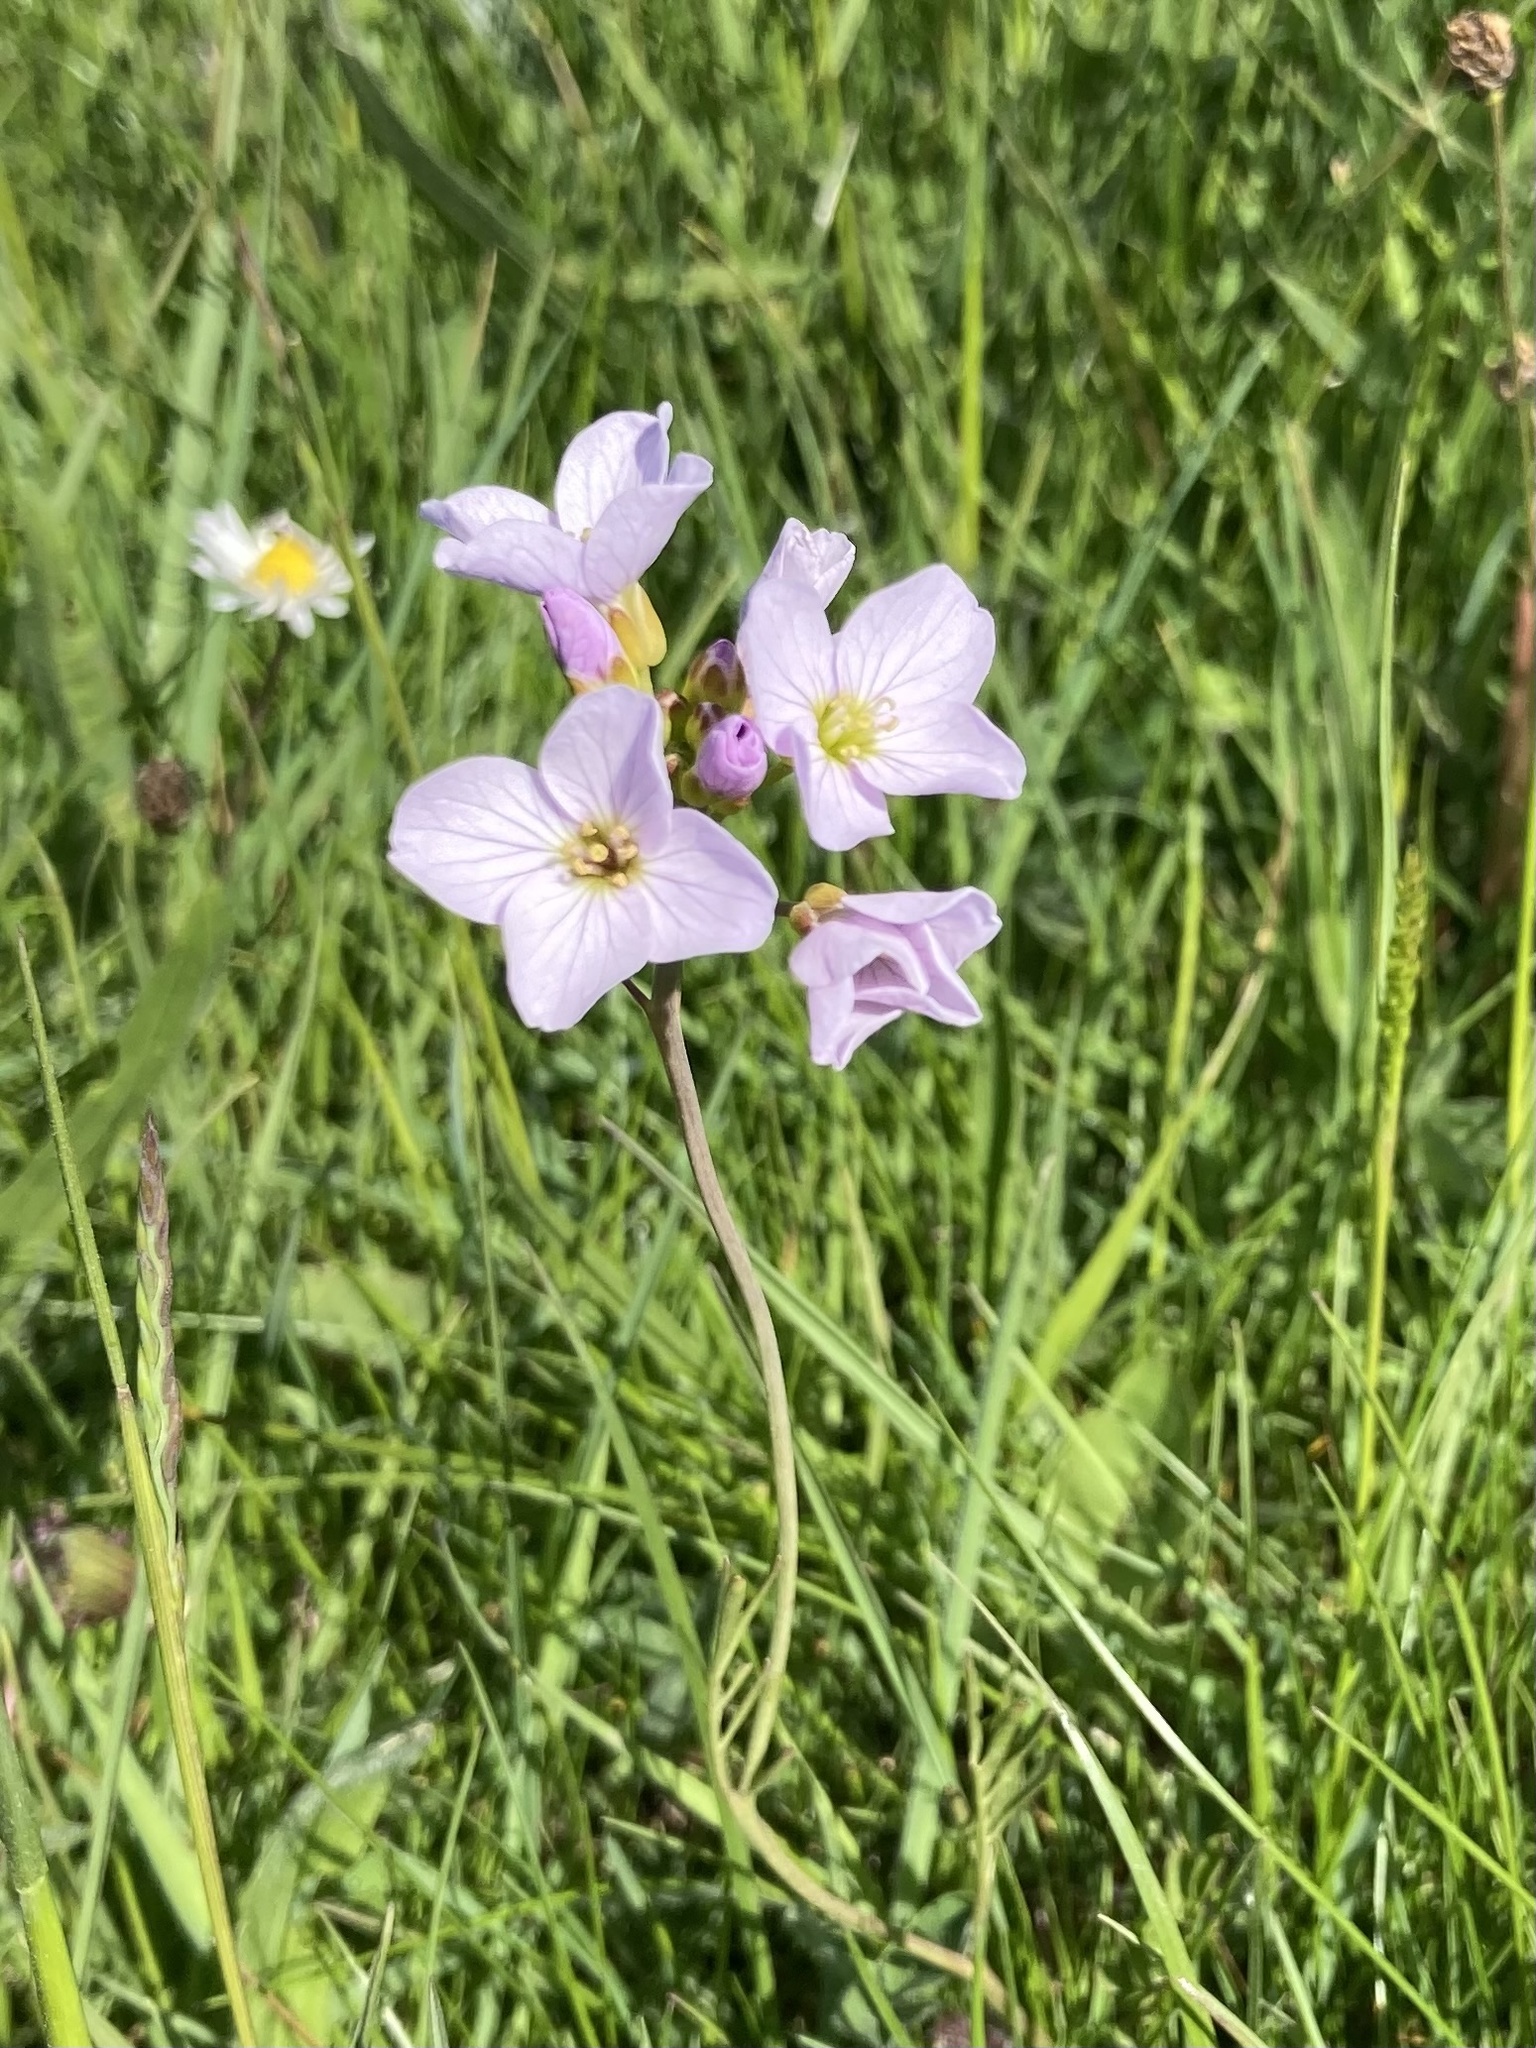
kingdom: Plantae
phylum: Tracheophyta
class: Magnoliopsida
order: Brassicales
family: Brassicaceae
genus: Cardamine
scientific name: Cardamine pratensis
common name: Cuckoo flower
